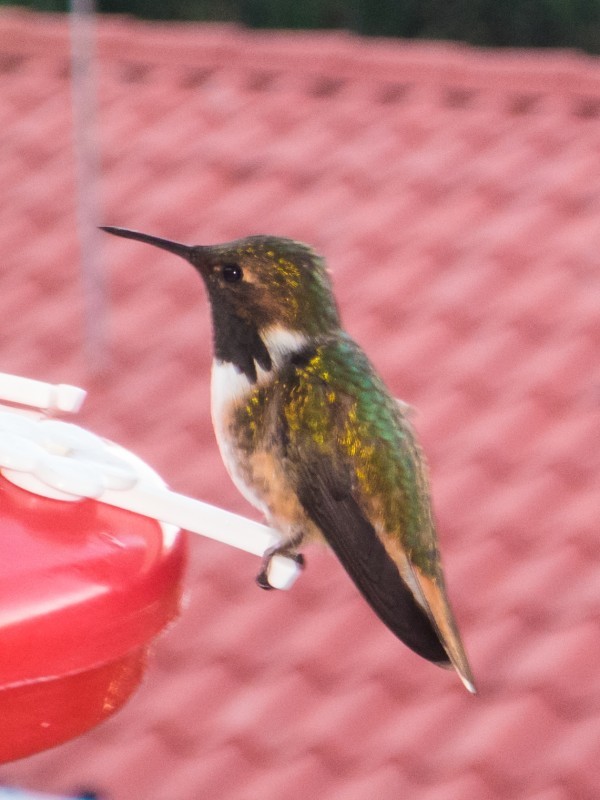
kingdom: Animalia
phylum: Chordata
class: Aves
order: Apodiformes
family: Trochilidae
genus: Selasphorus
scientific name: Selasphorus flammula
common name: Volcano hummingbird
